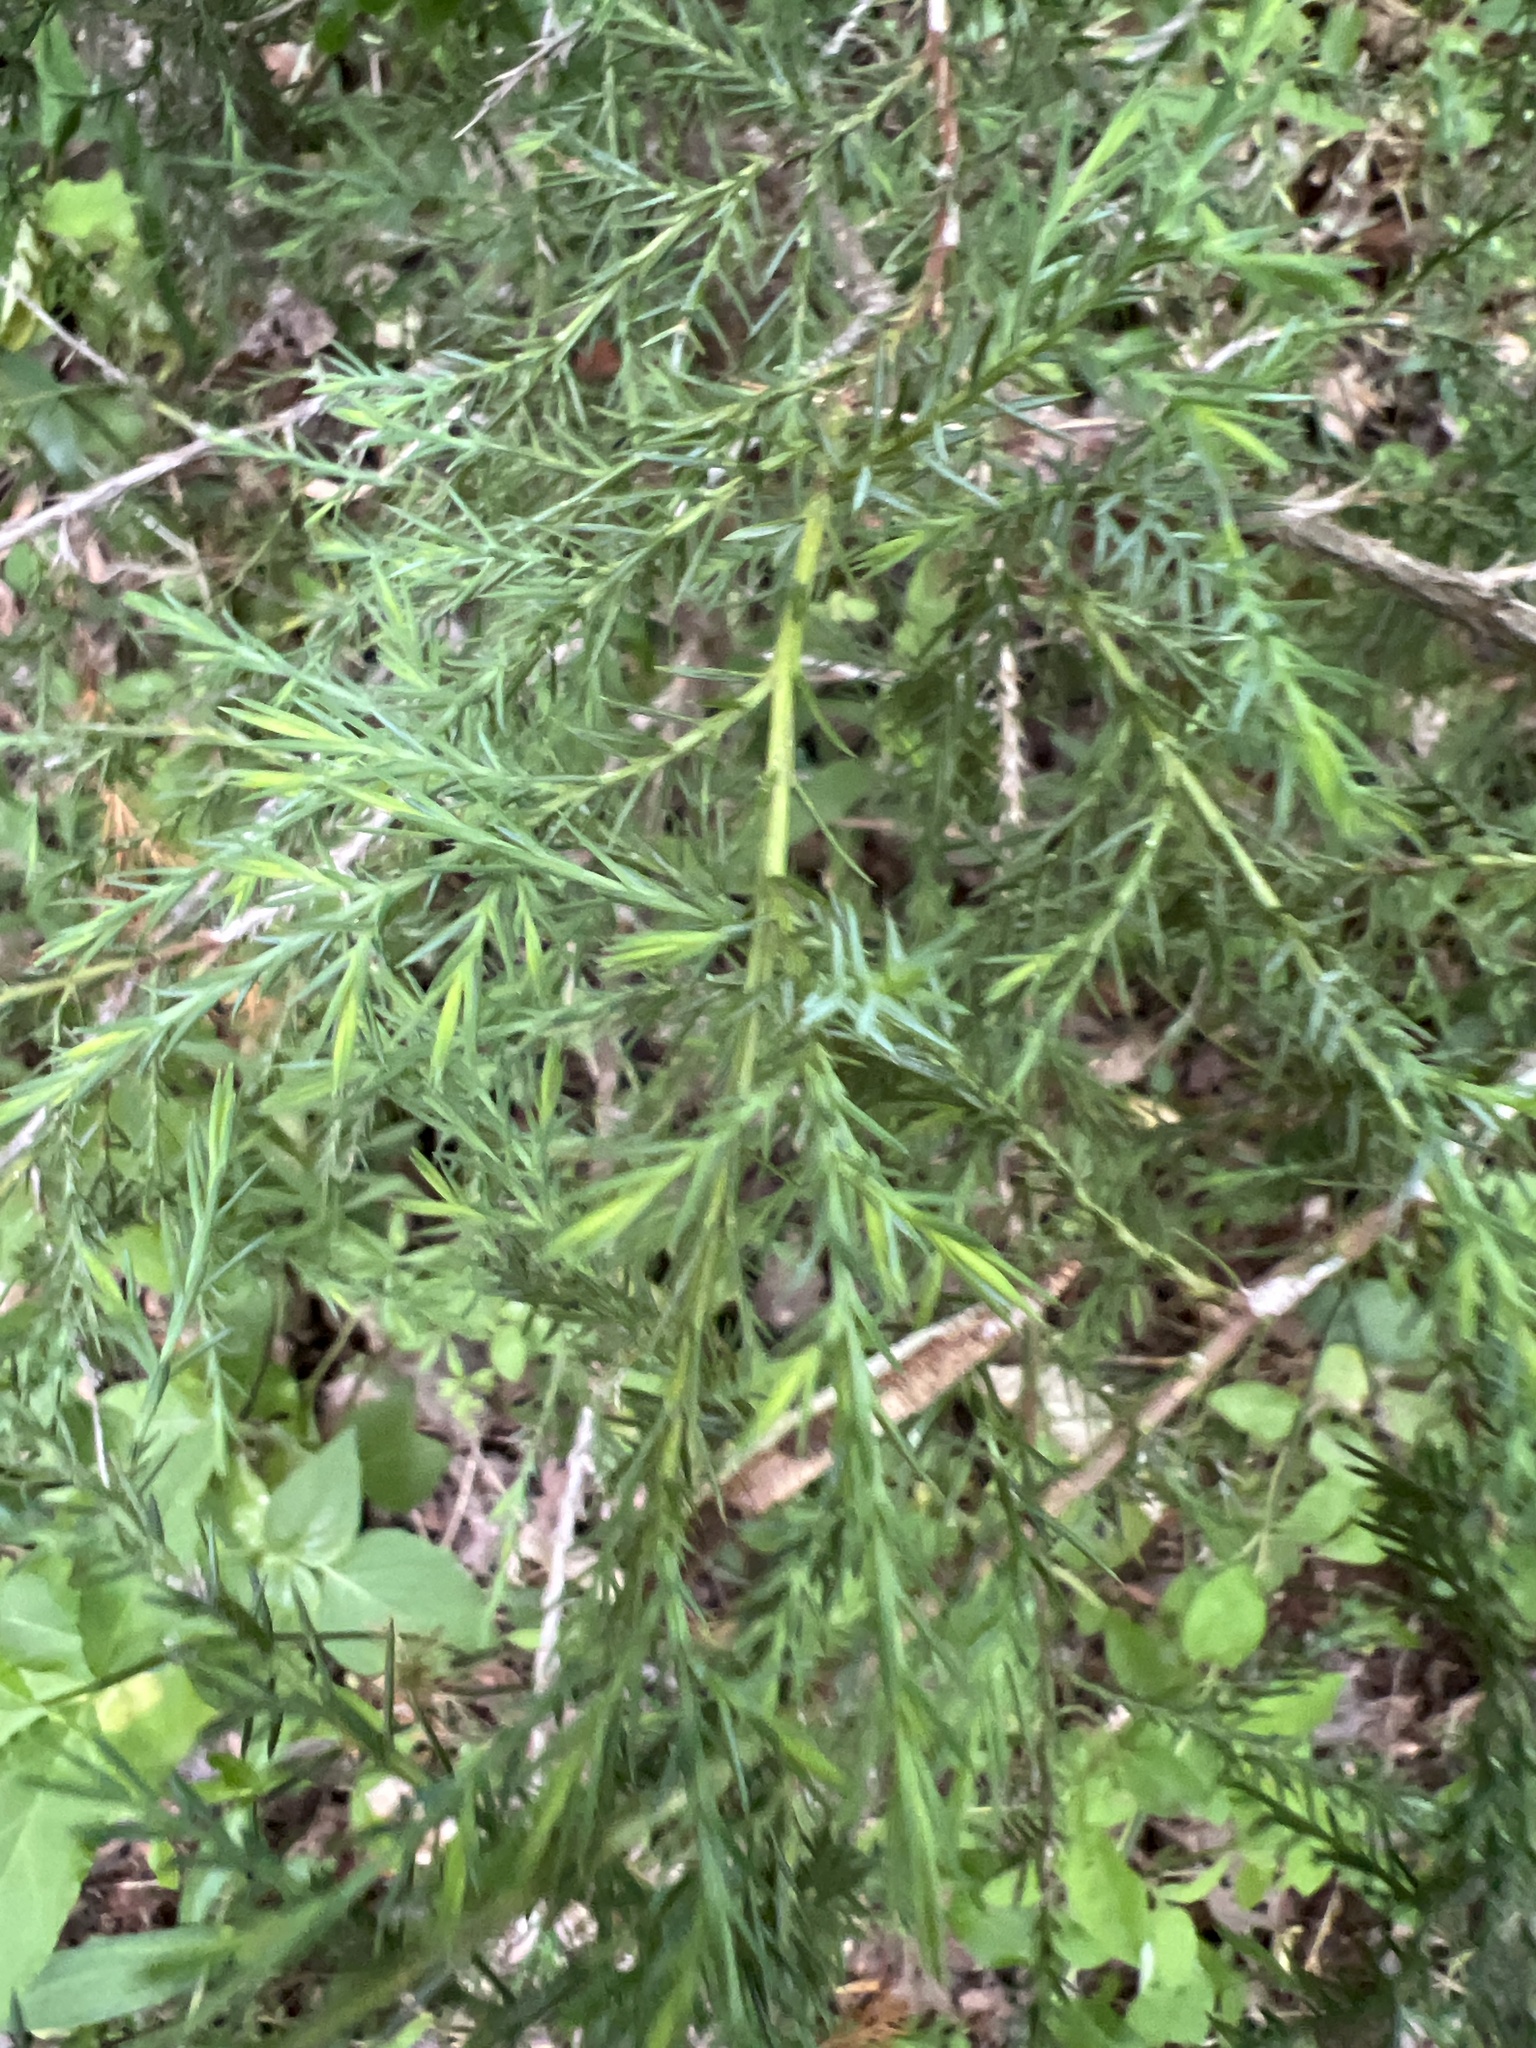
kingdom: Plantae
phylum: Tracheophyta
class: Pinopsida
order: Pinales
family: Cupressaceae
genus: Juniperus
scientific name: Juniperus virginiana
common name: Red juniper
